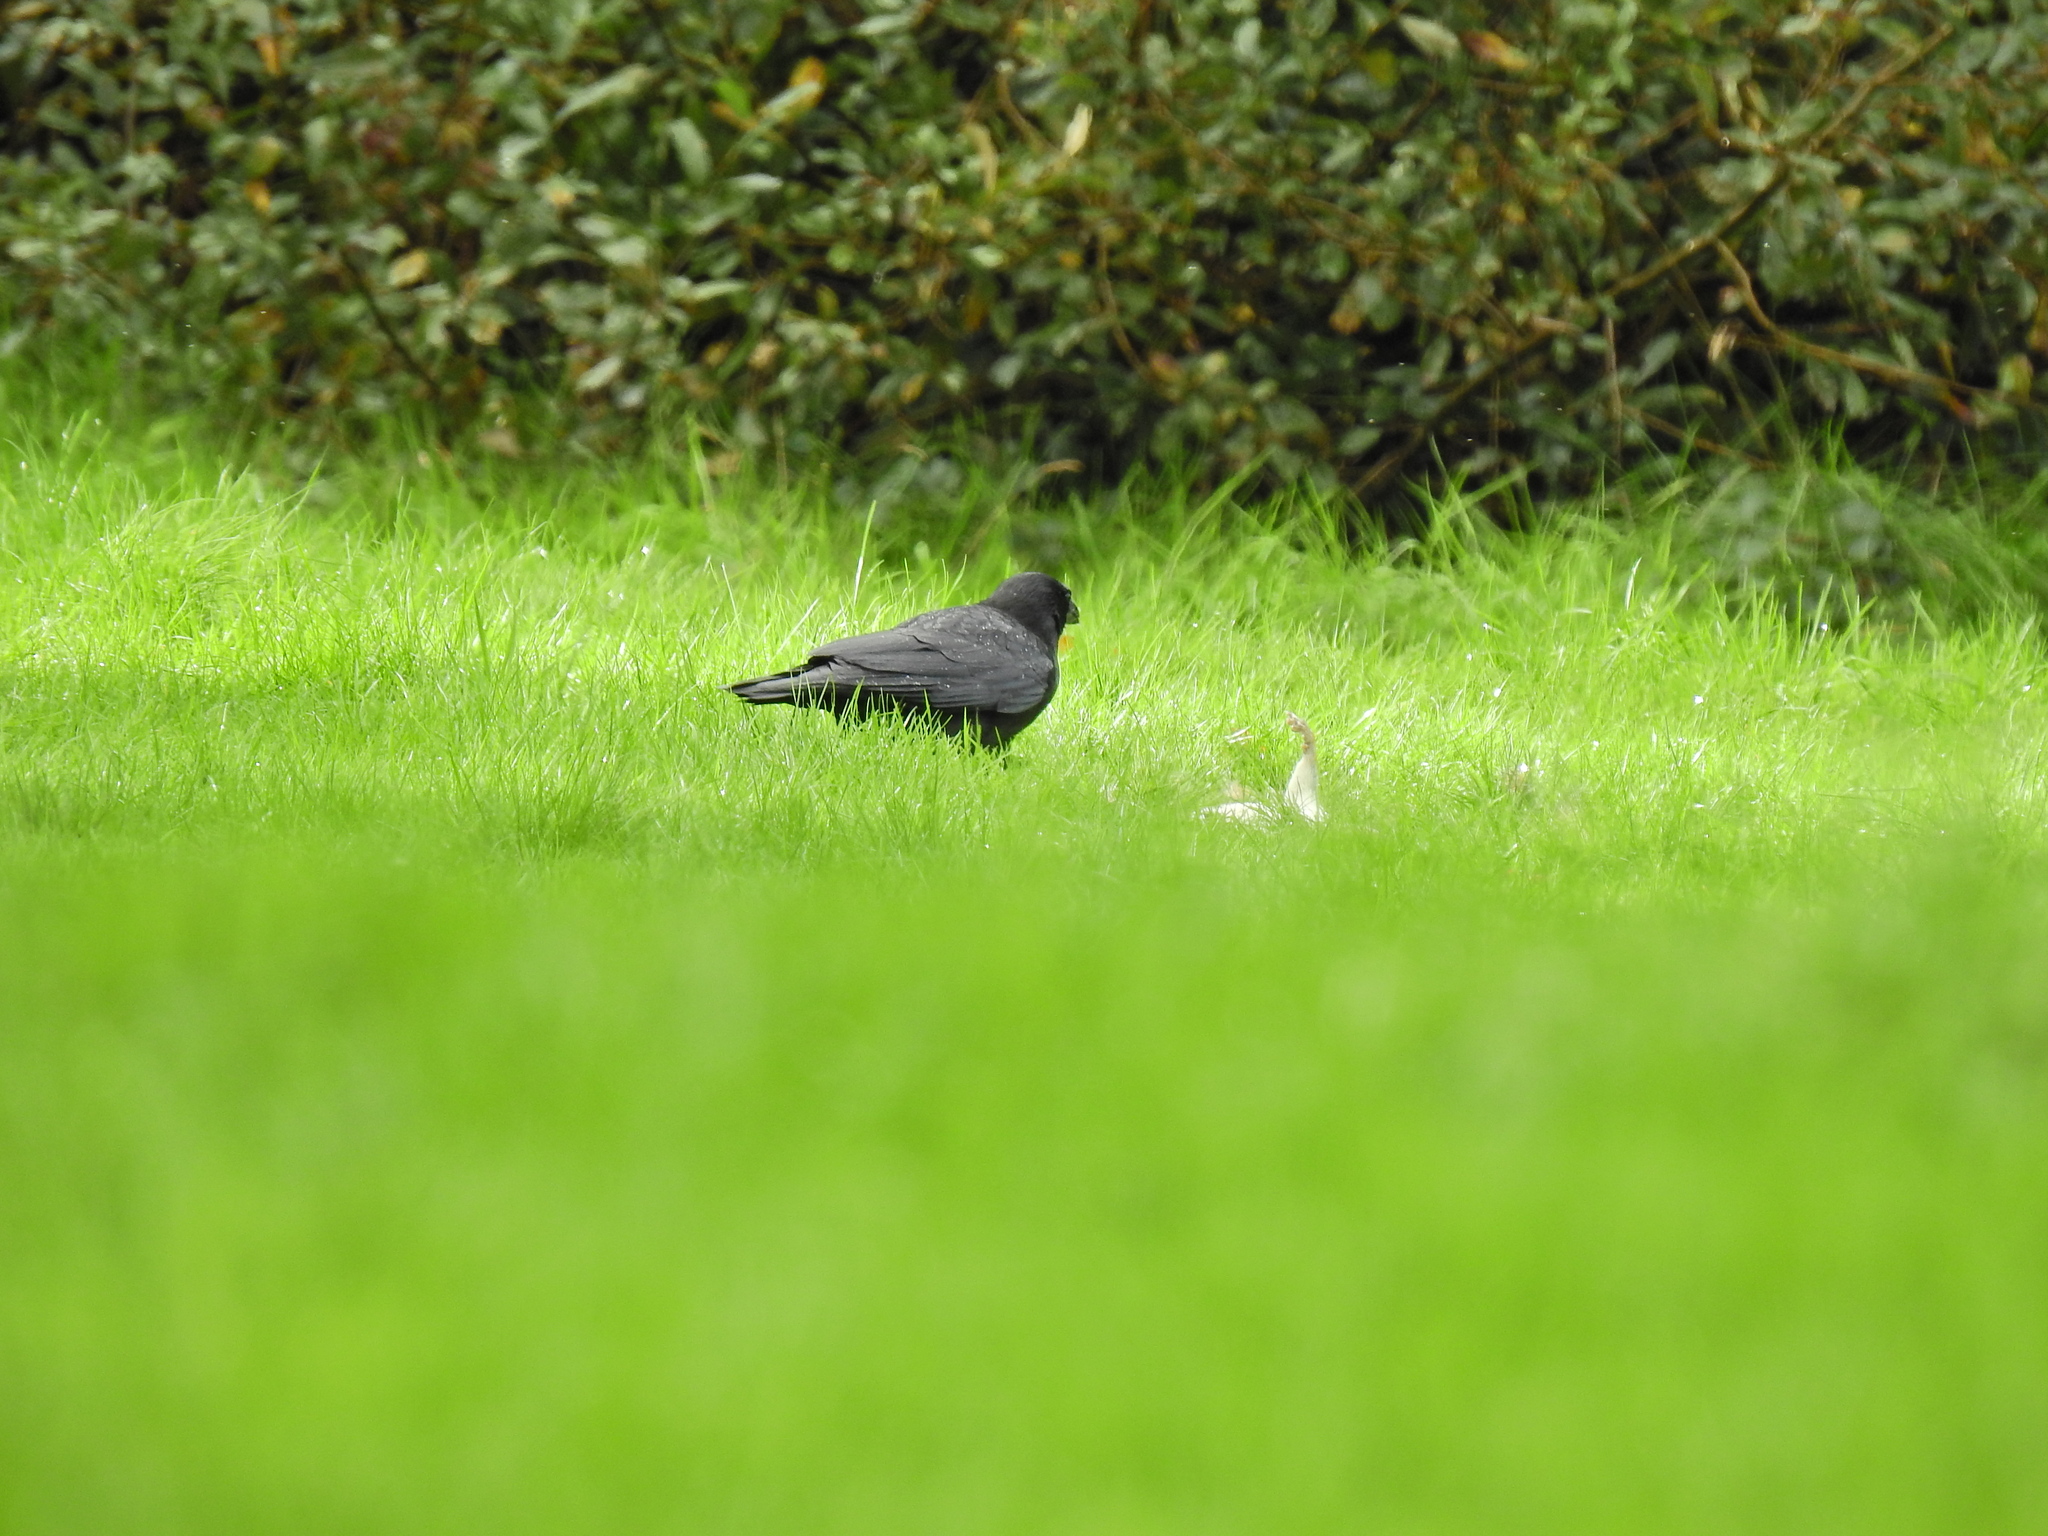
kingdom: Animalia
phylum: Chordata
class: Aves
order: Passeriformes
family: Corvidae
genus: Corvus
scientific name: Corvus corone
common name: Carrion crow
